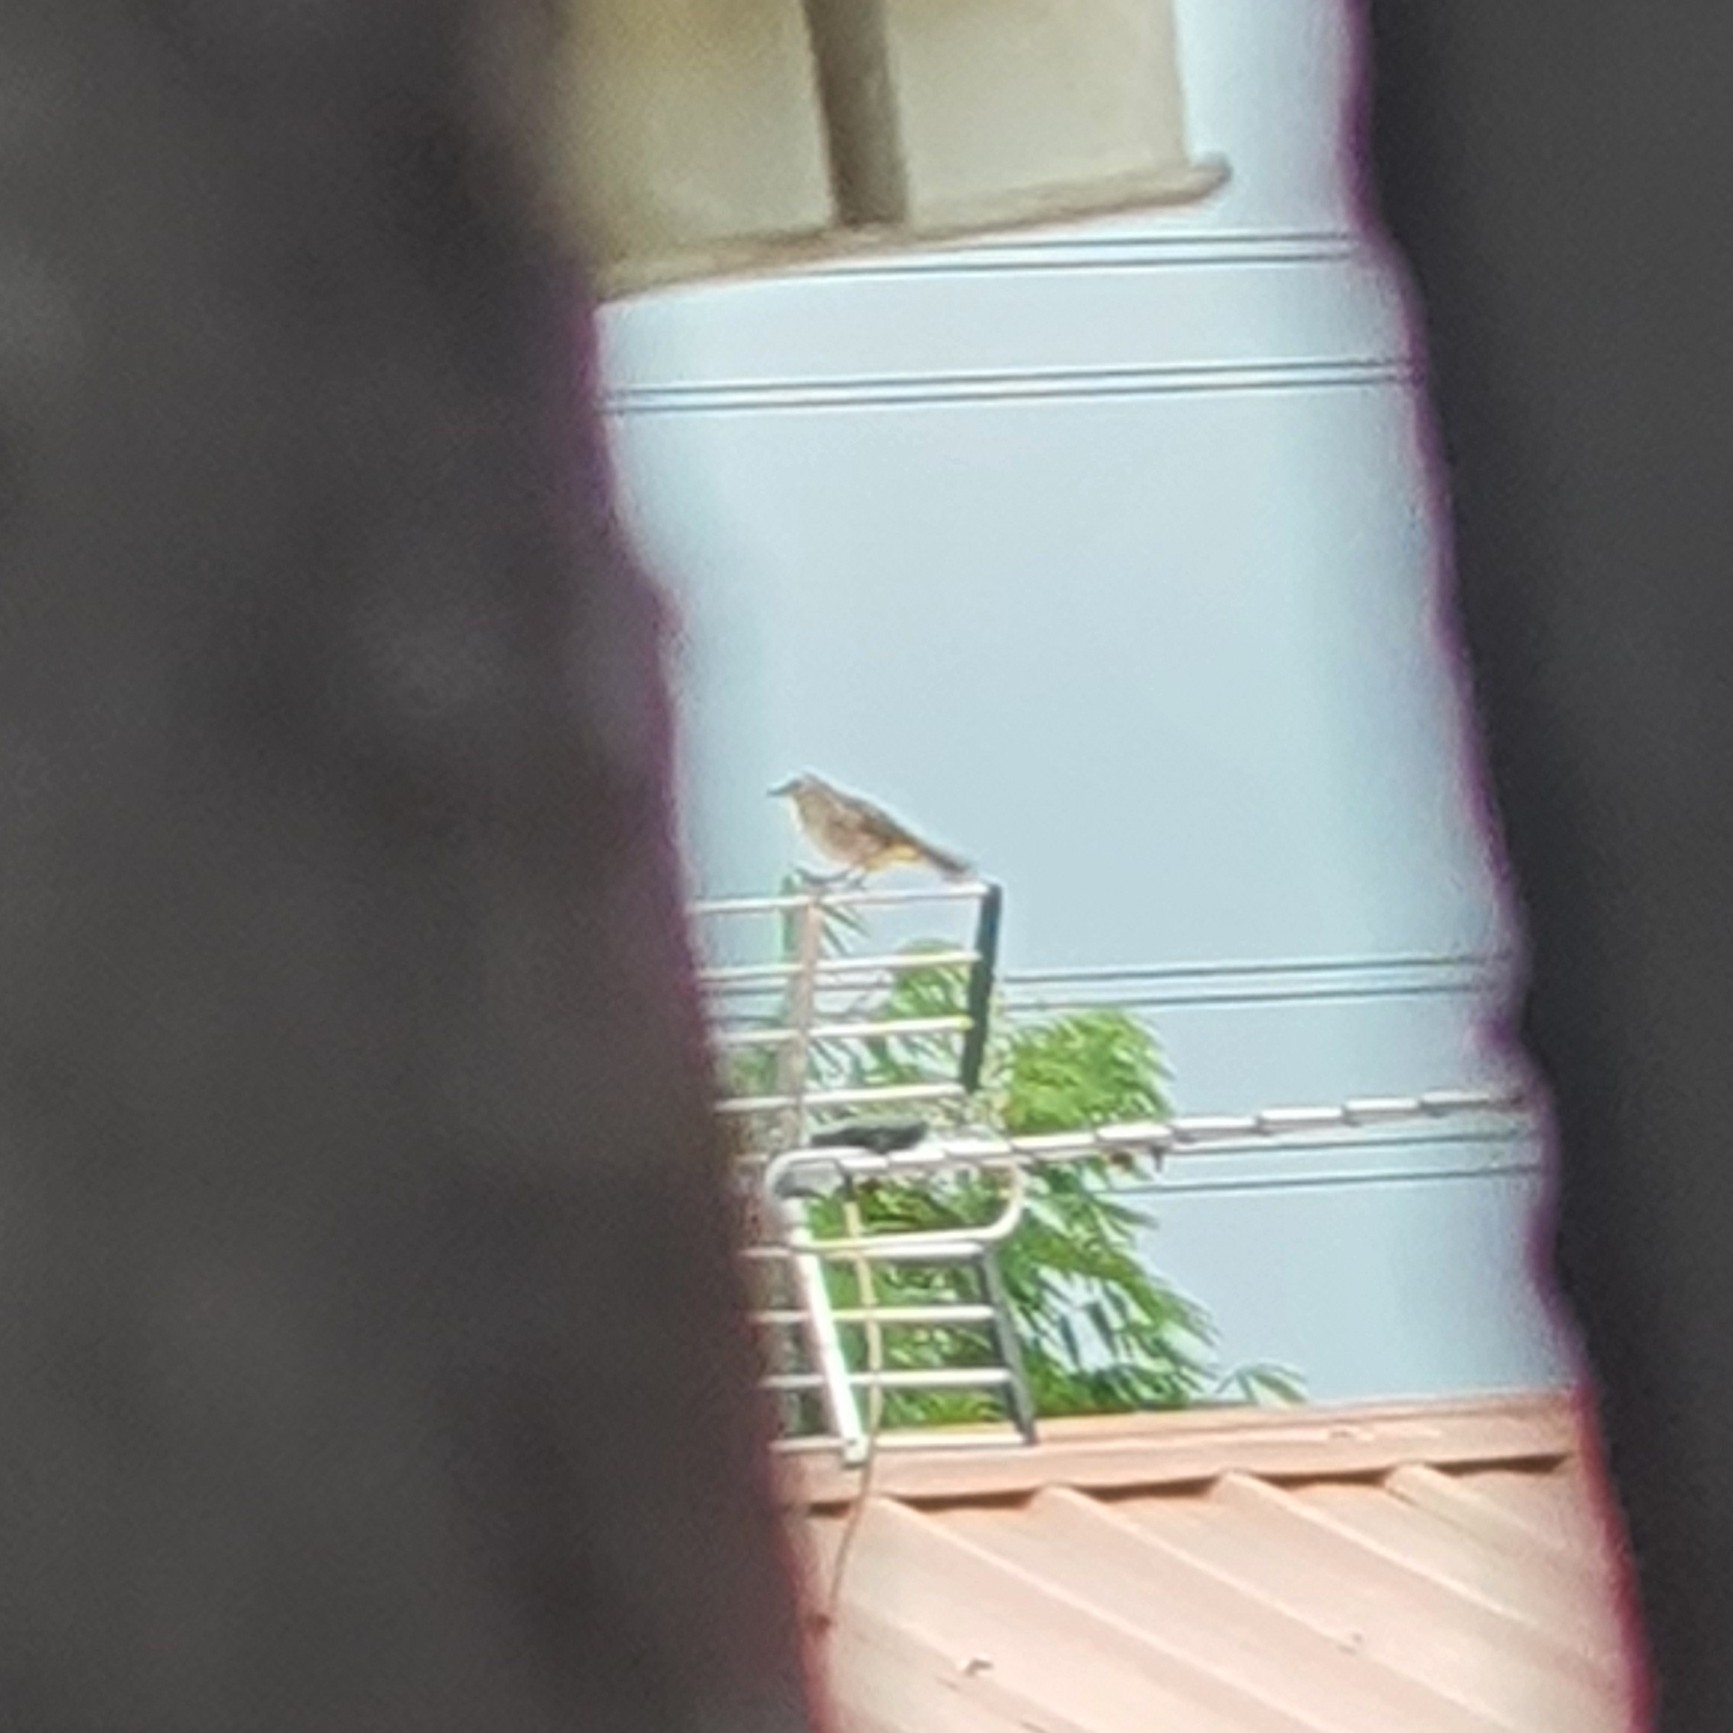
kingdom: Animalia
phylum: Chordata
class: Aves
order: Passeriformes
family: Pycnonotidae
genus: Pycnonotus
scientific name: Pycnonotus goiavier
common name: Yellow-vented bulbul
